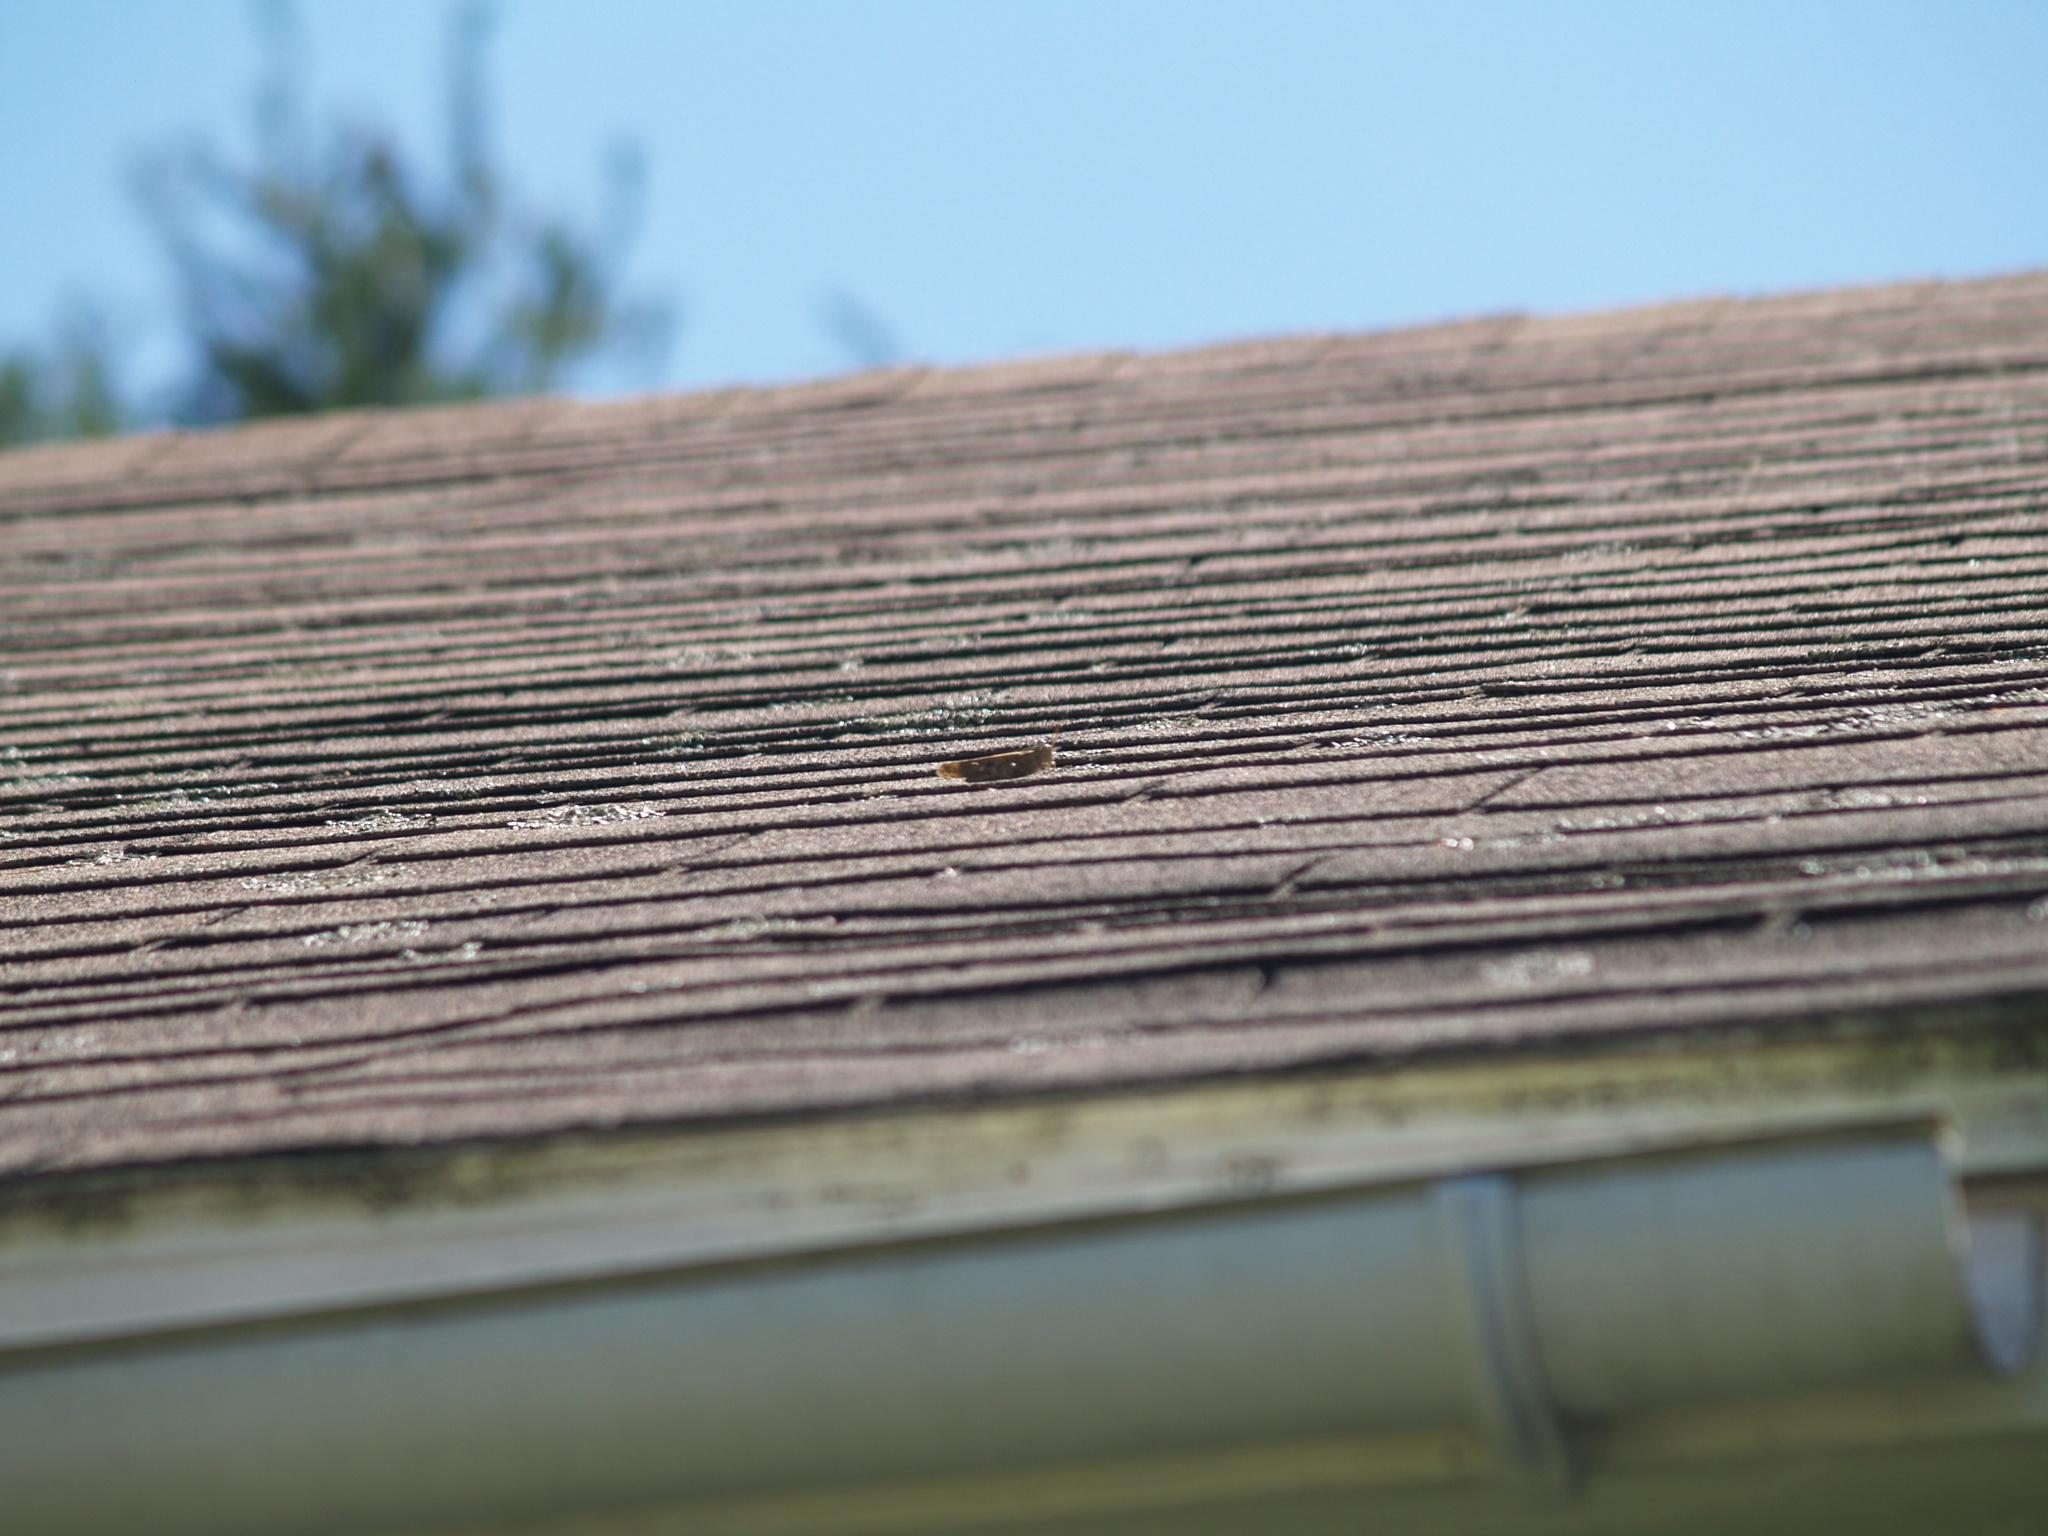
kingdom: Animalia
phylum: Arthropoda
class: Insecta
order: Orthoptera
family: Acrididae
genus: Dissosteira
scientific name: Dissosteira carolina
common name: Carolina grasshopper
